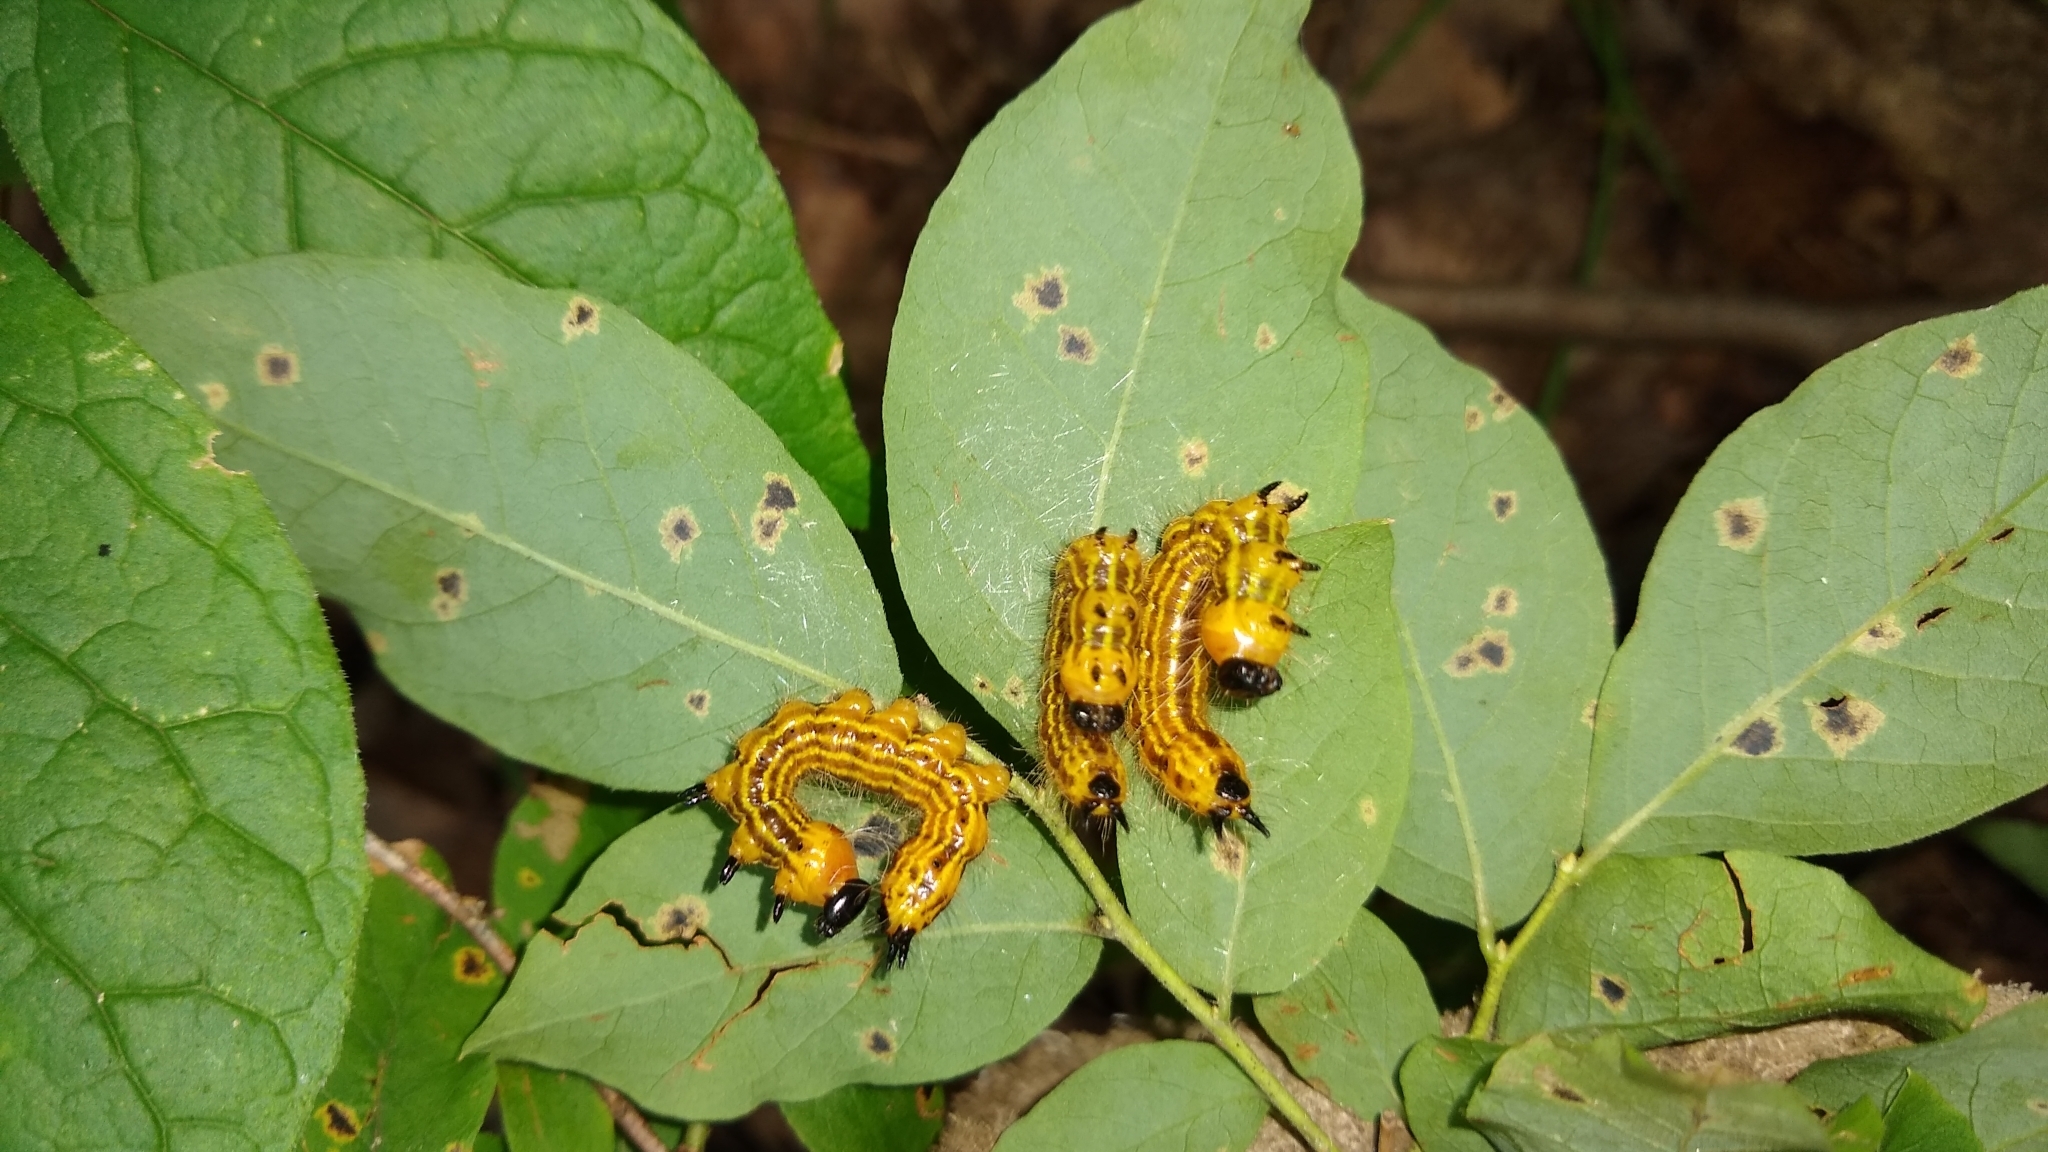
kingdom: Animalia
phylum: Arthropoda
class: Insecta
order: Lepidoptera
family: Notodontidae
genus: Datana
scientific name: Datana drexelii
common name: Drexel's datana
